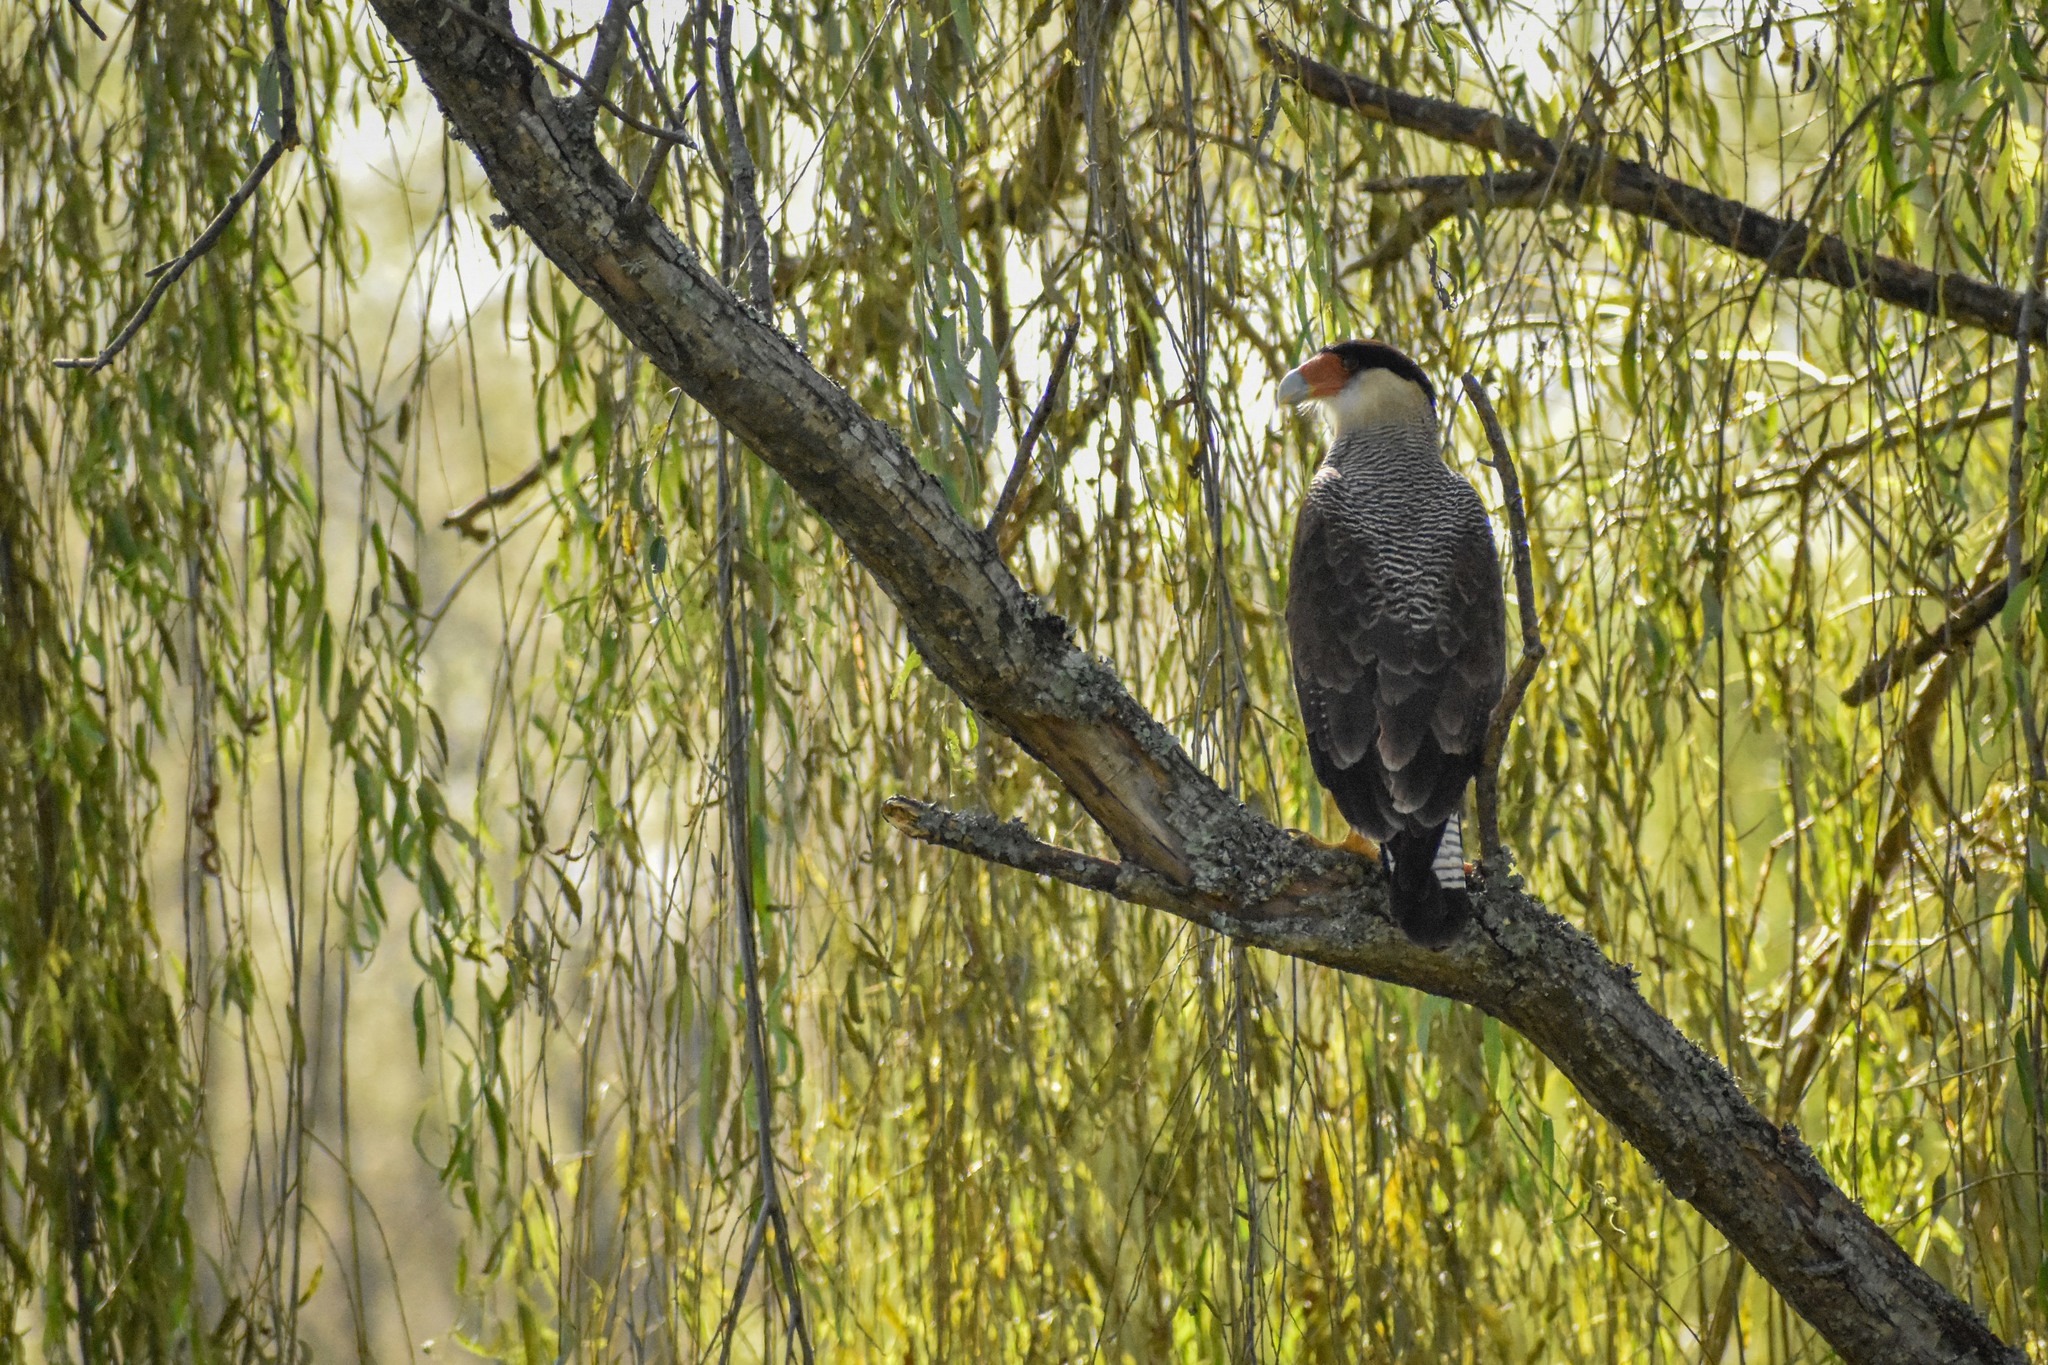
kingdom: Animalia
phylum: Chordata
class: Aves
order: Falconiformes
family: Falconidae
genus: Caracara
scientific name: Caracara plancus
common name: Southern caracara
